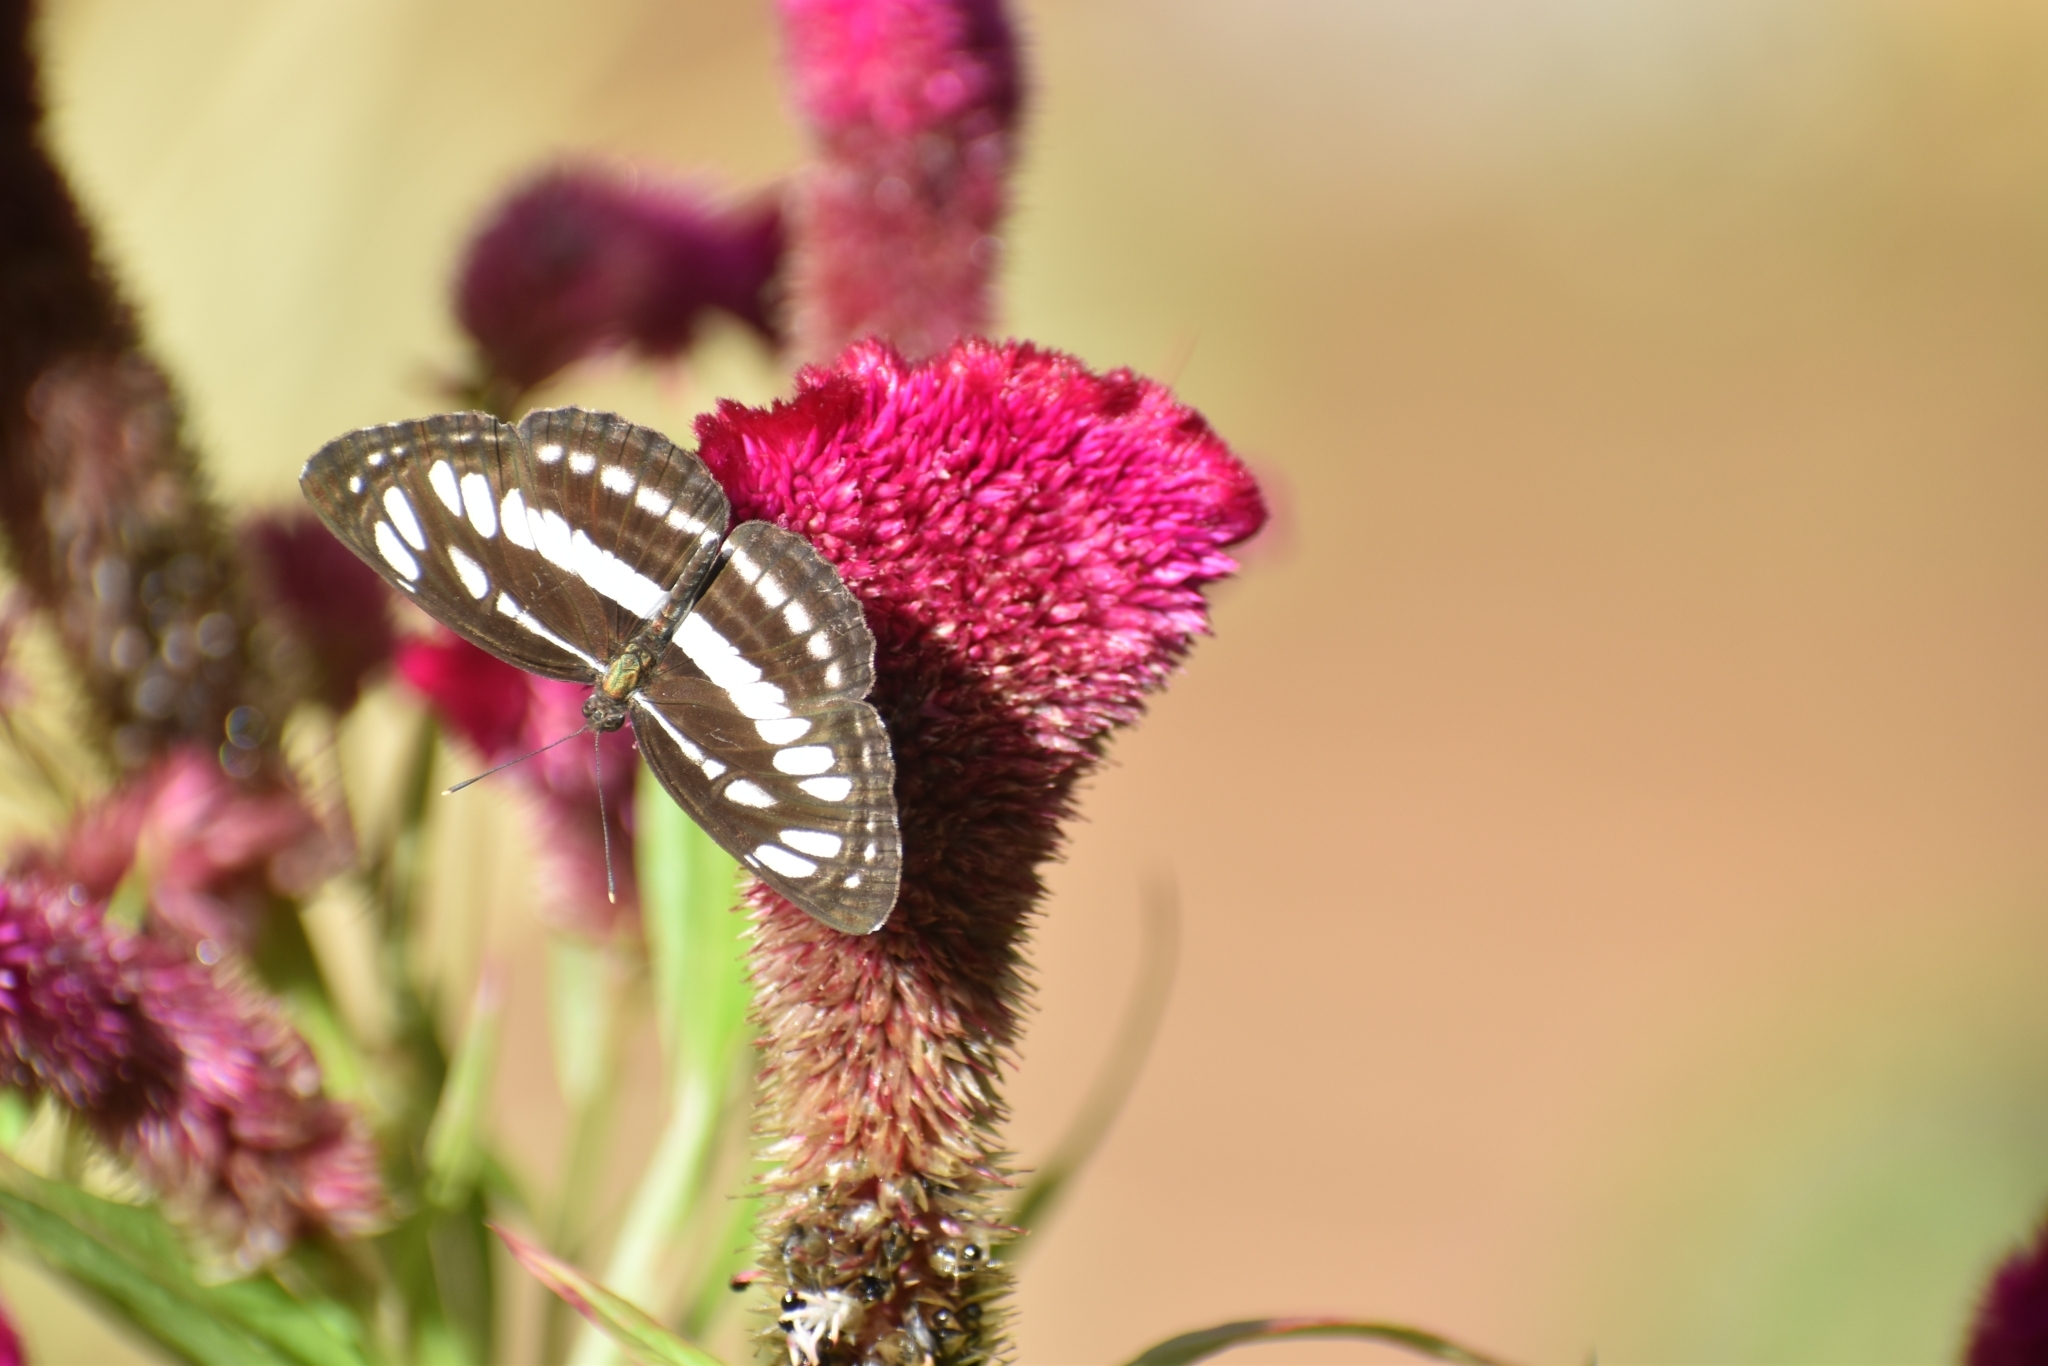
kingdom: Animalia
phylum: Arthropoda
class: Insecta
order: Lepidoptera
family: Nymphalidae
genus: Neptis
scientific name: Neptis hylas
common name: Common sailer
